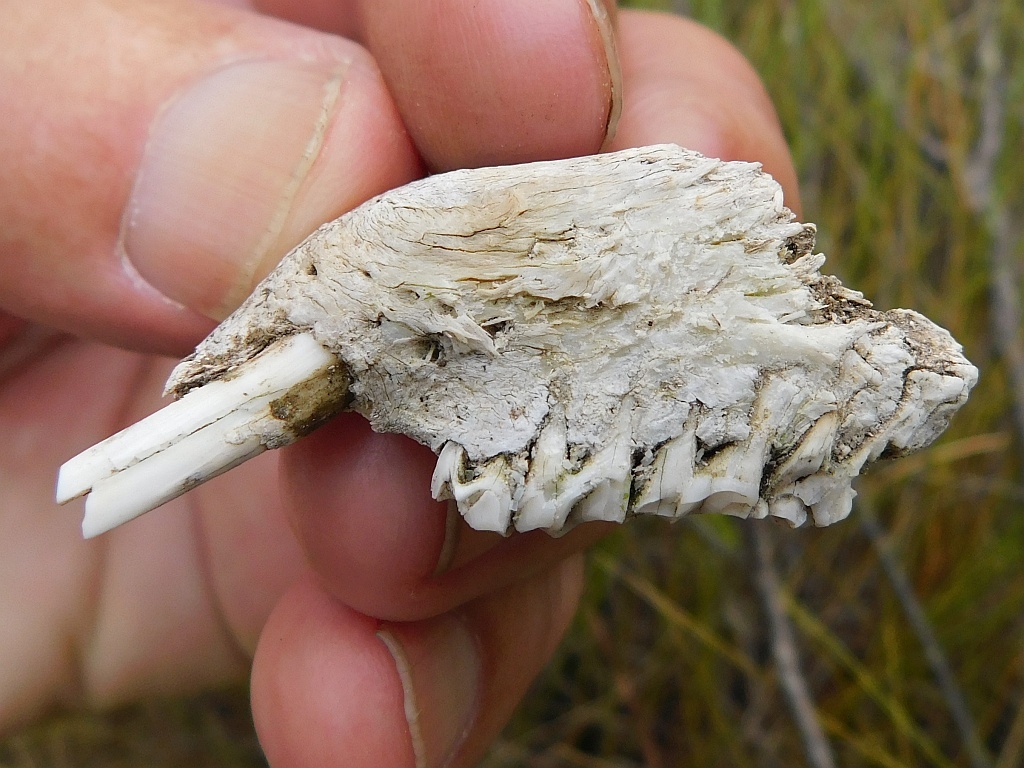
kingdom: Animalia
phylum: Chordata
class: Mammalia
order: Hyracoidea
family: Procaviidae
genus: Procavia
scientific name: Procavia capensis
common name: Rock hyrax
